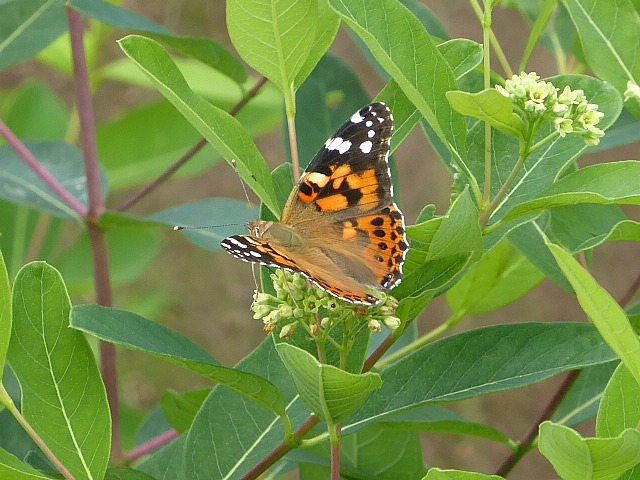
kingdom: Animalia
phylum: Arthropoda
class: Insecta
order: Lepidoptera
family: Nymphalidae
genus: Vanessa
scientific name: Vanessa cardui
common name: Painted lady
